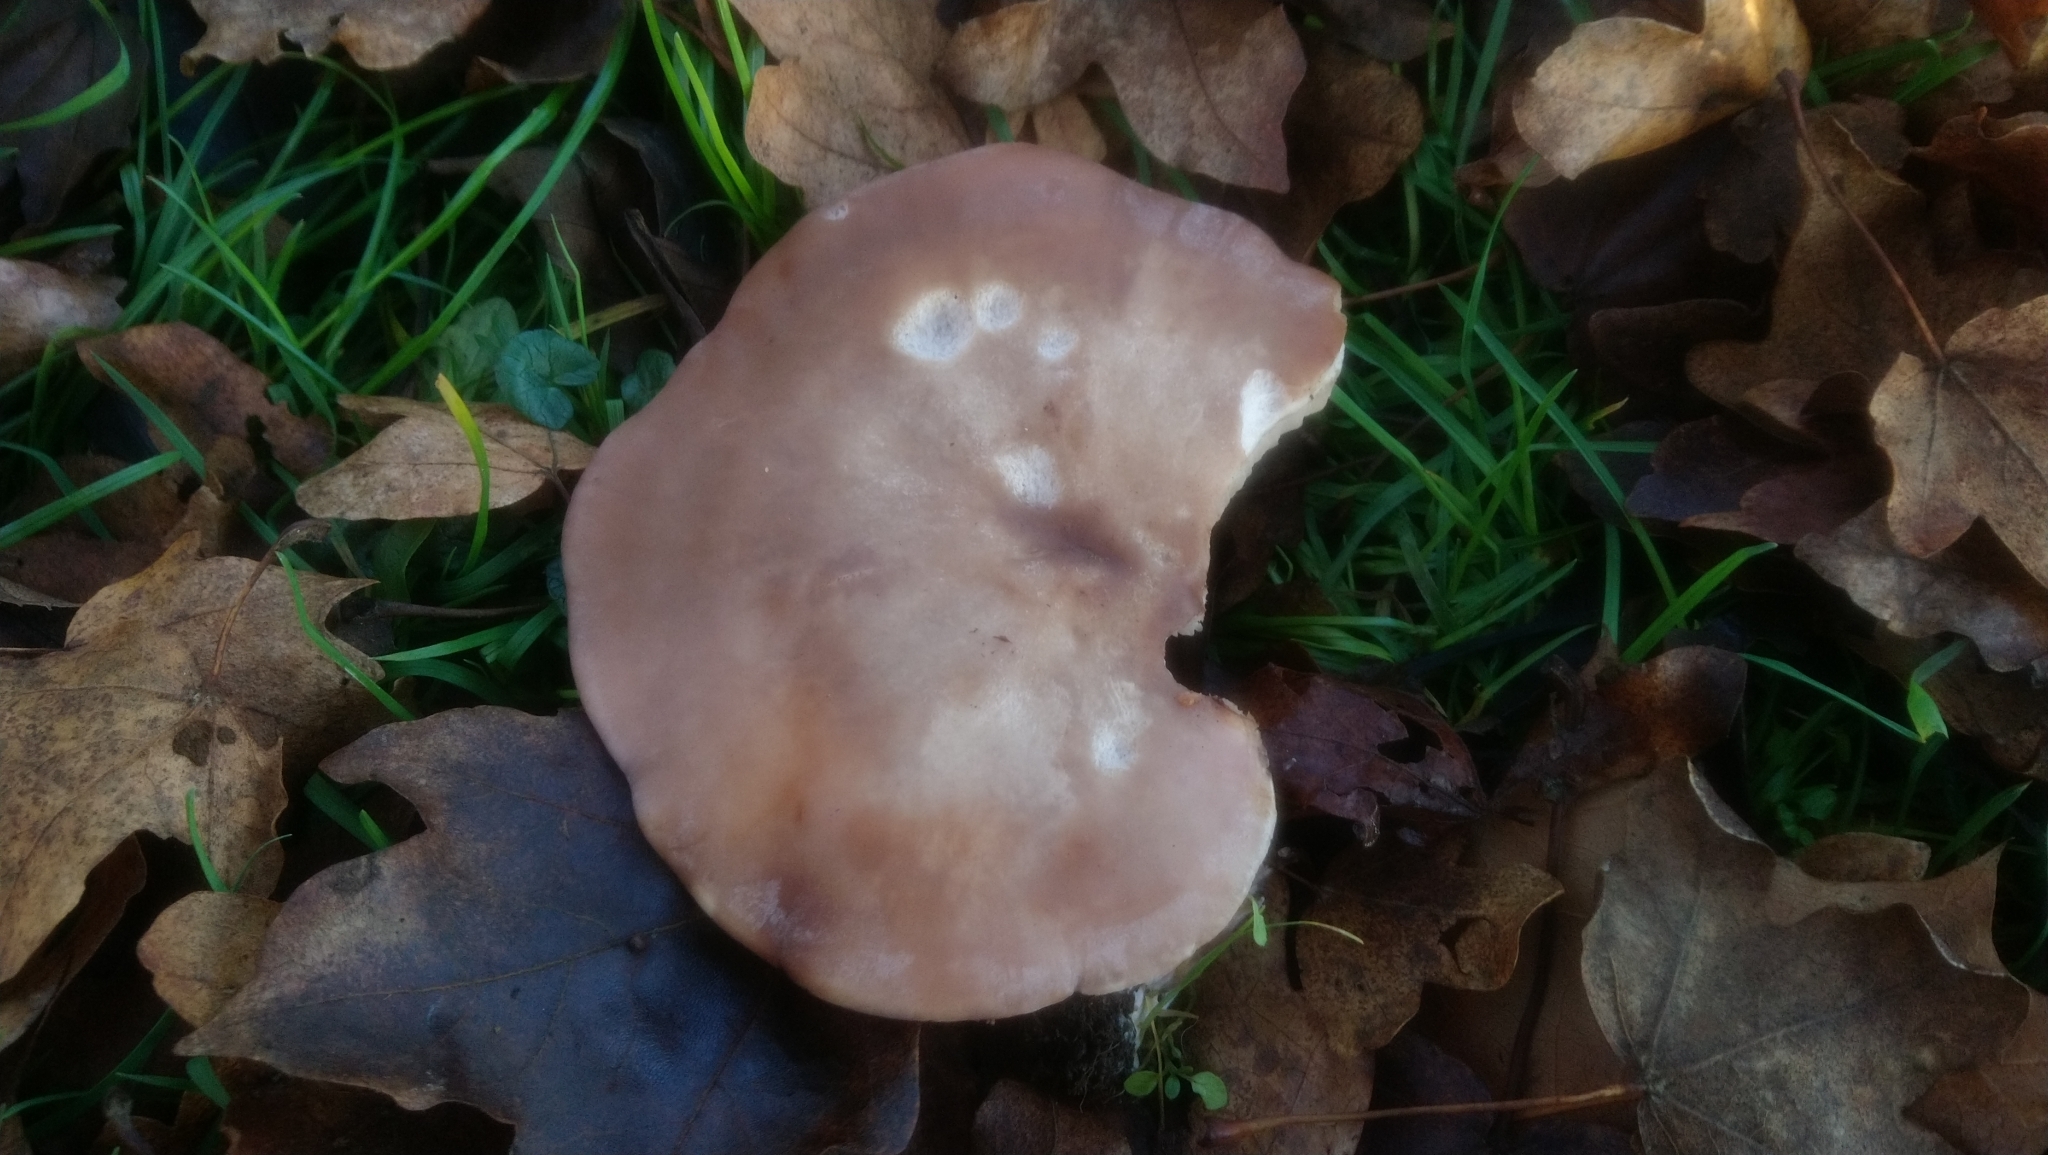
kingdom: Fungi
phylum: Basidiomycota
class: Agaricomycetes
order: Agaricales
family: Omphalotaceae
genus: Collybiopsis
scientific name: Collybiopsis peronata
